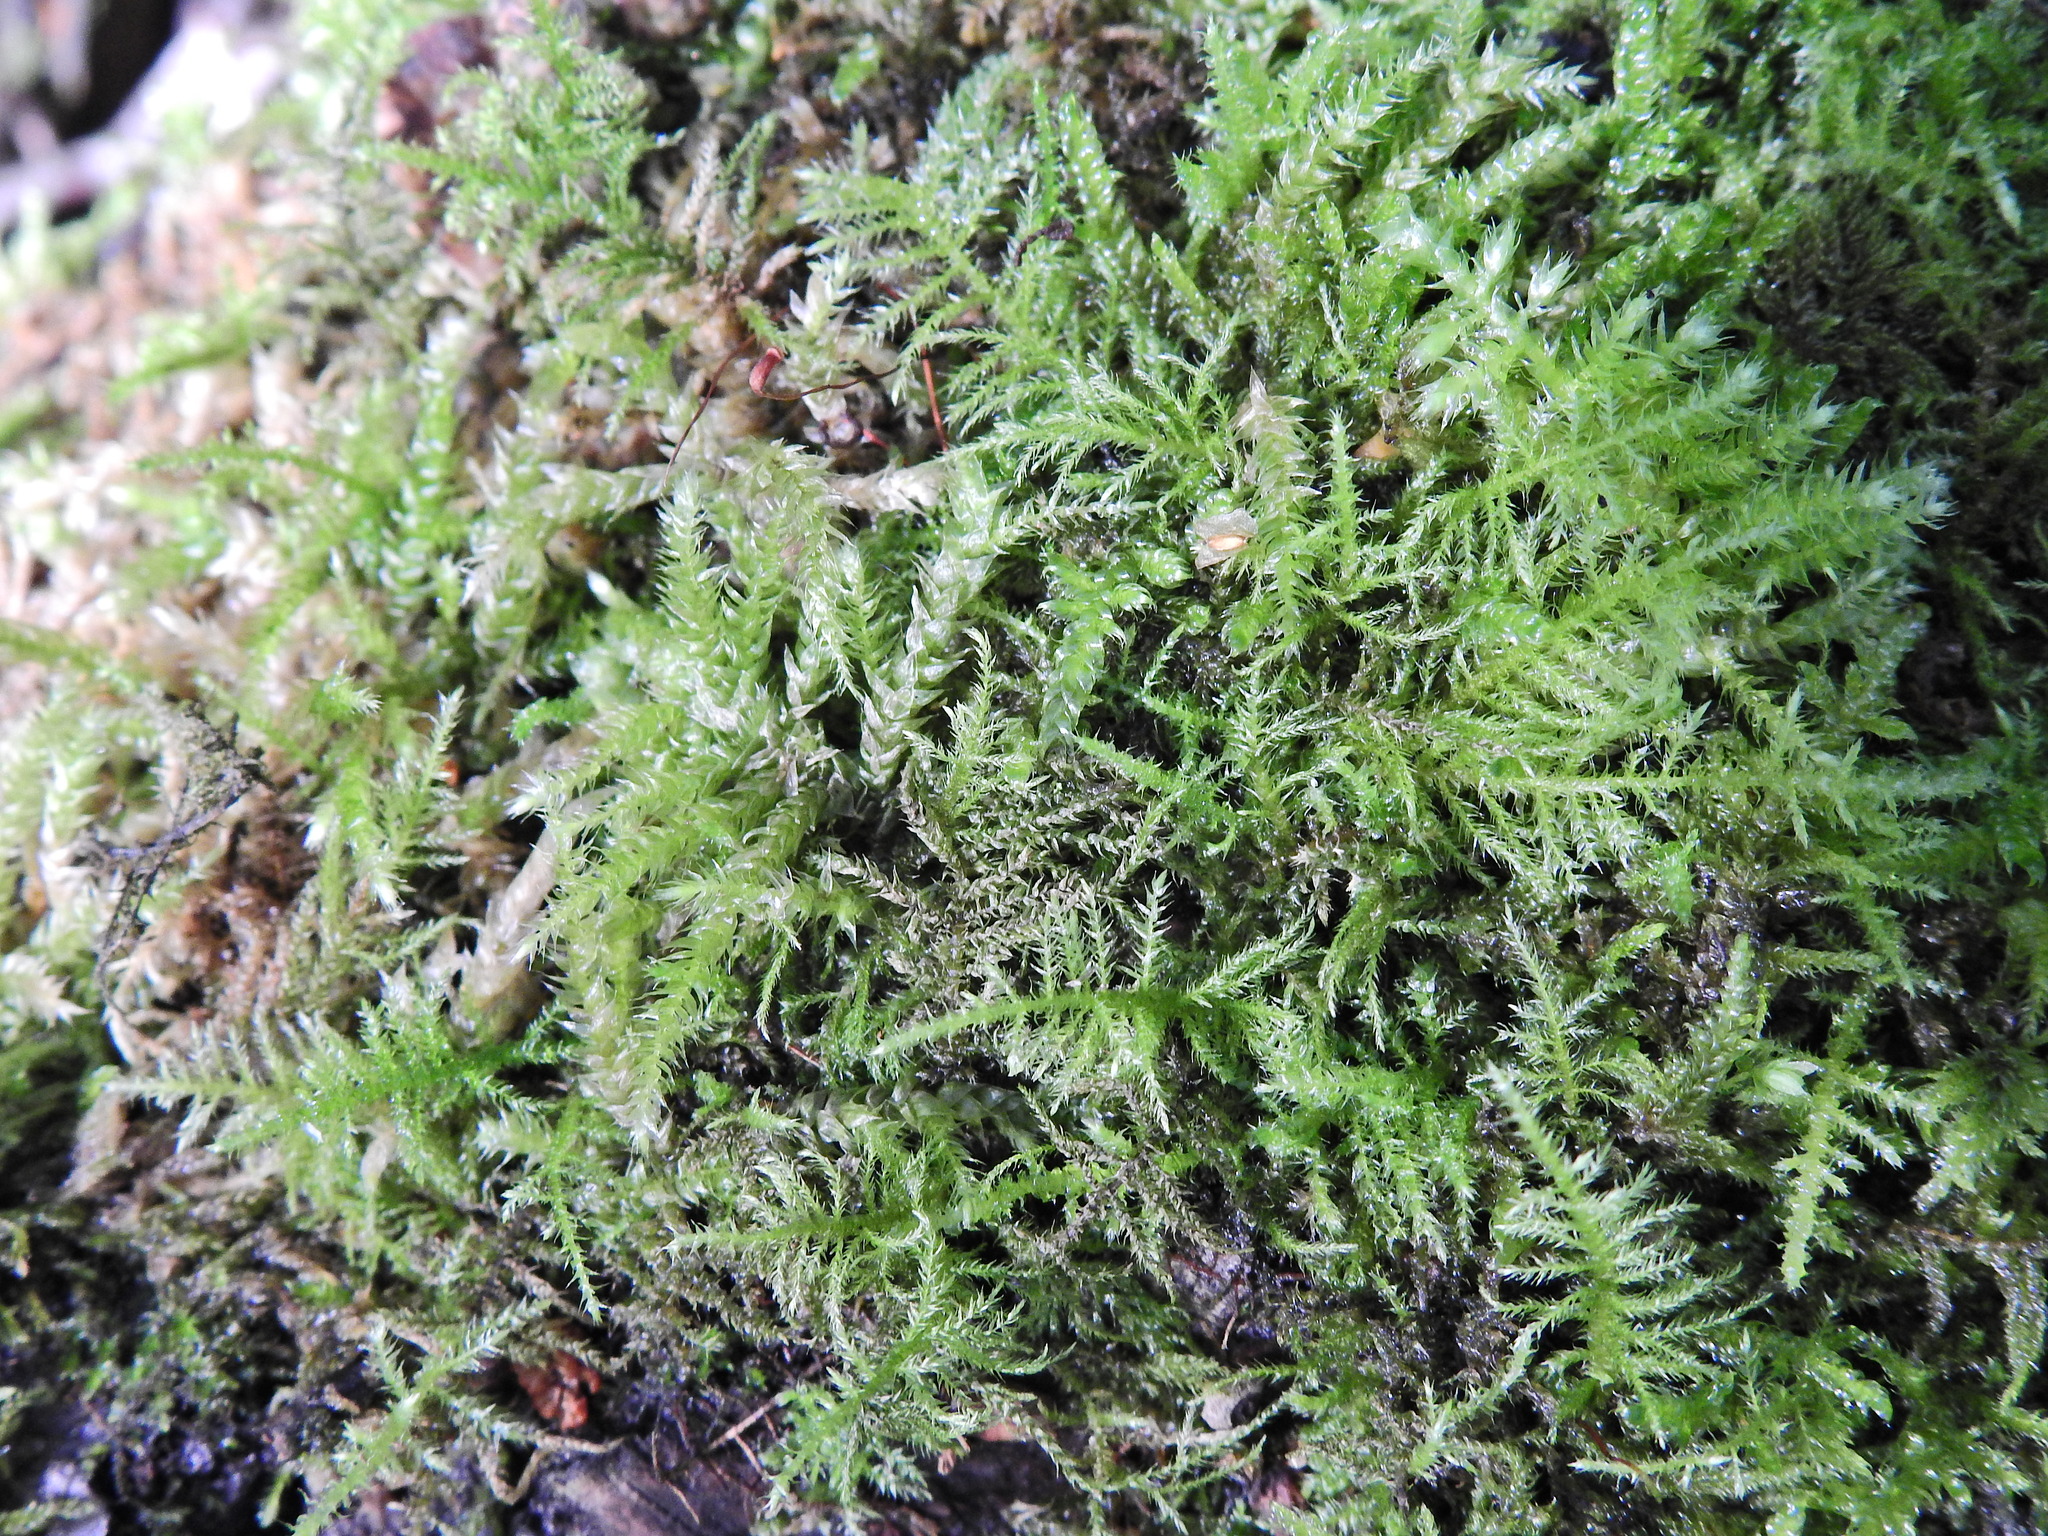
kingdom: Plantae
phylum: Bryophyta
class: Bryopsida
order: Hypnales
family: Brachytheciaceae
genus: Kindbergia
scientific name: Kindbergia praelonga
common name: Slender beaked moss
